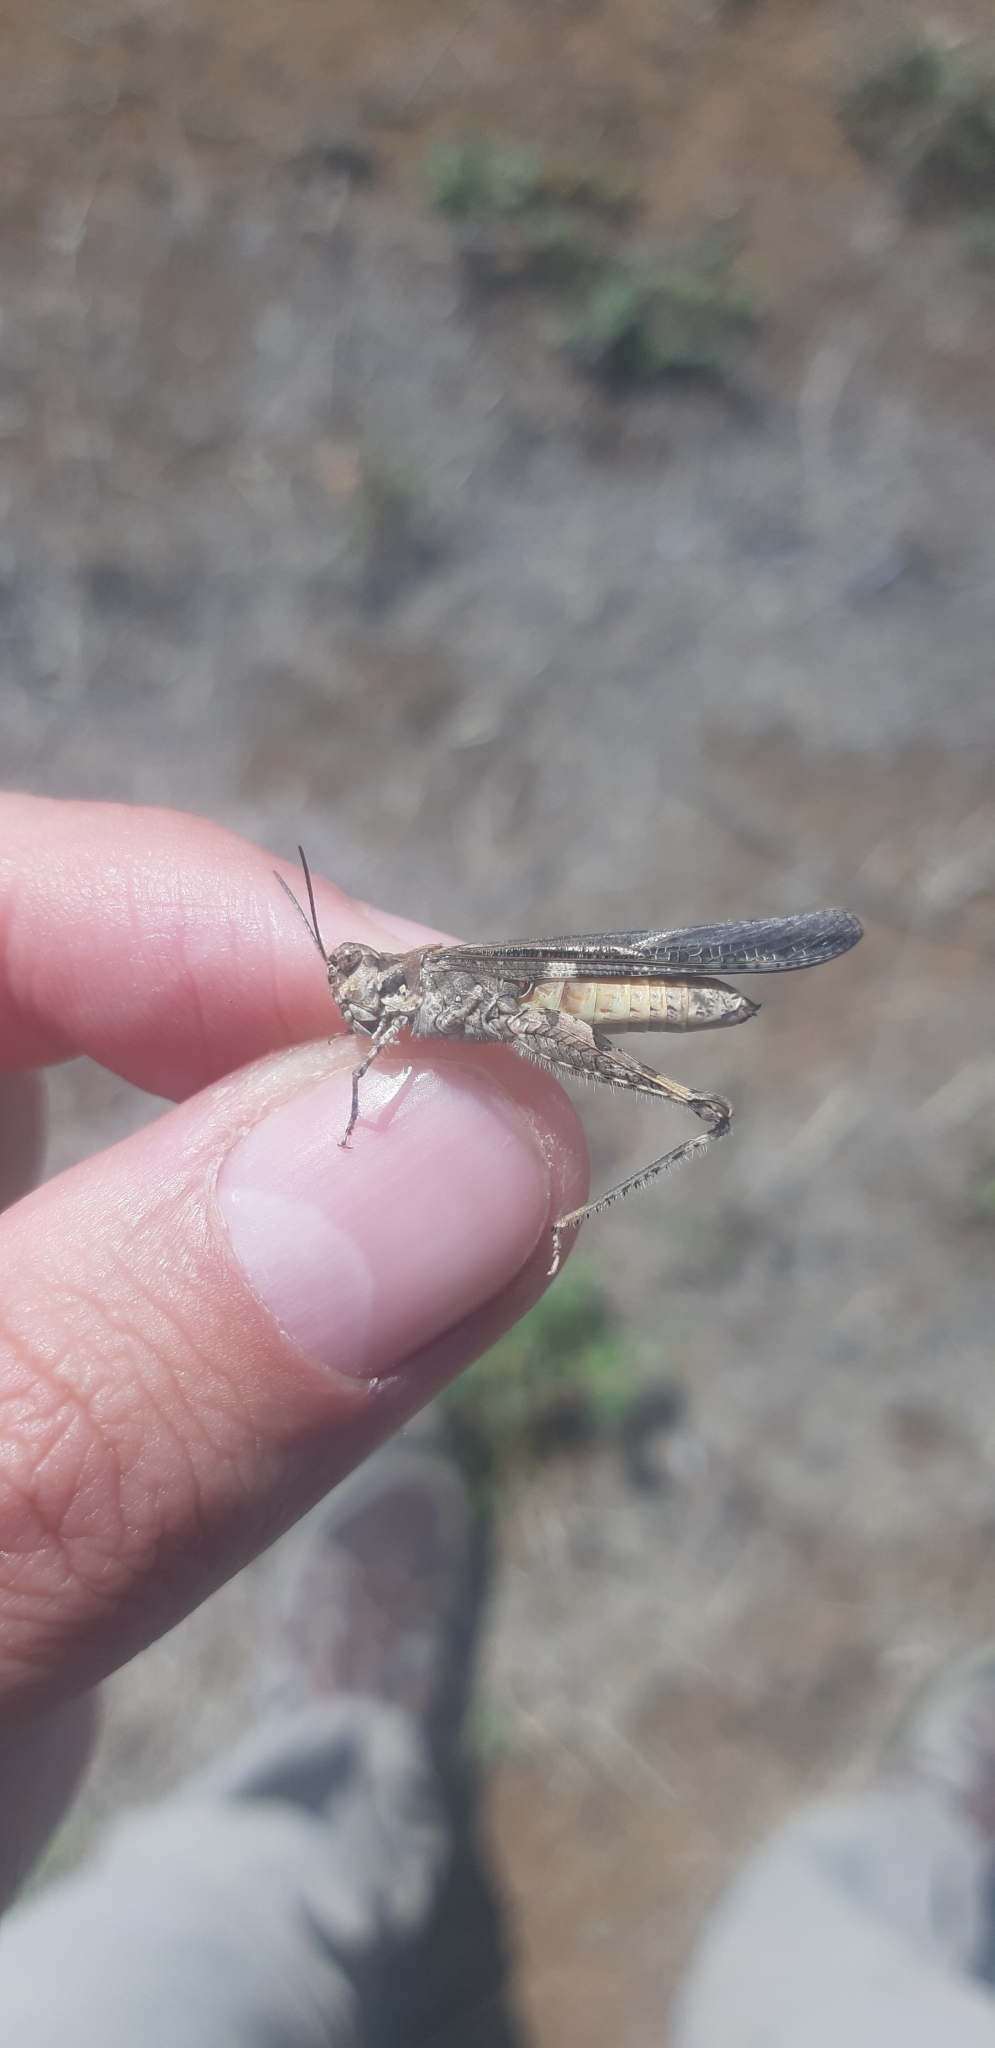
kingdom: Animalia
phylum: Arthropoda
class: Insecta
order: Orthoptera
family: Acrididae
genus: Acrotylus
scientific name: Acrotylus patruelis
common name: Slender burrowing grasshopper
